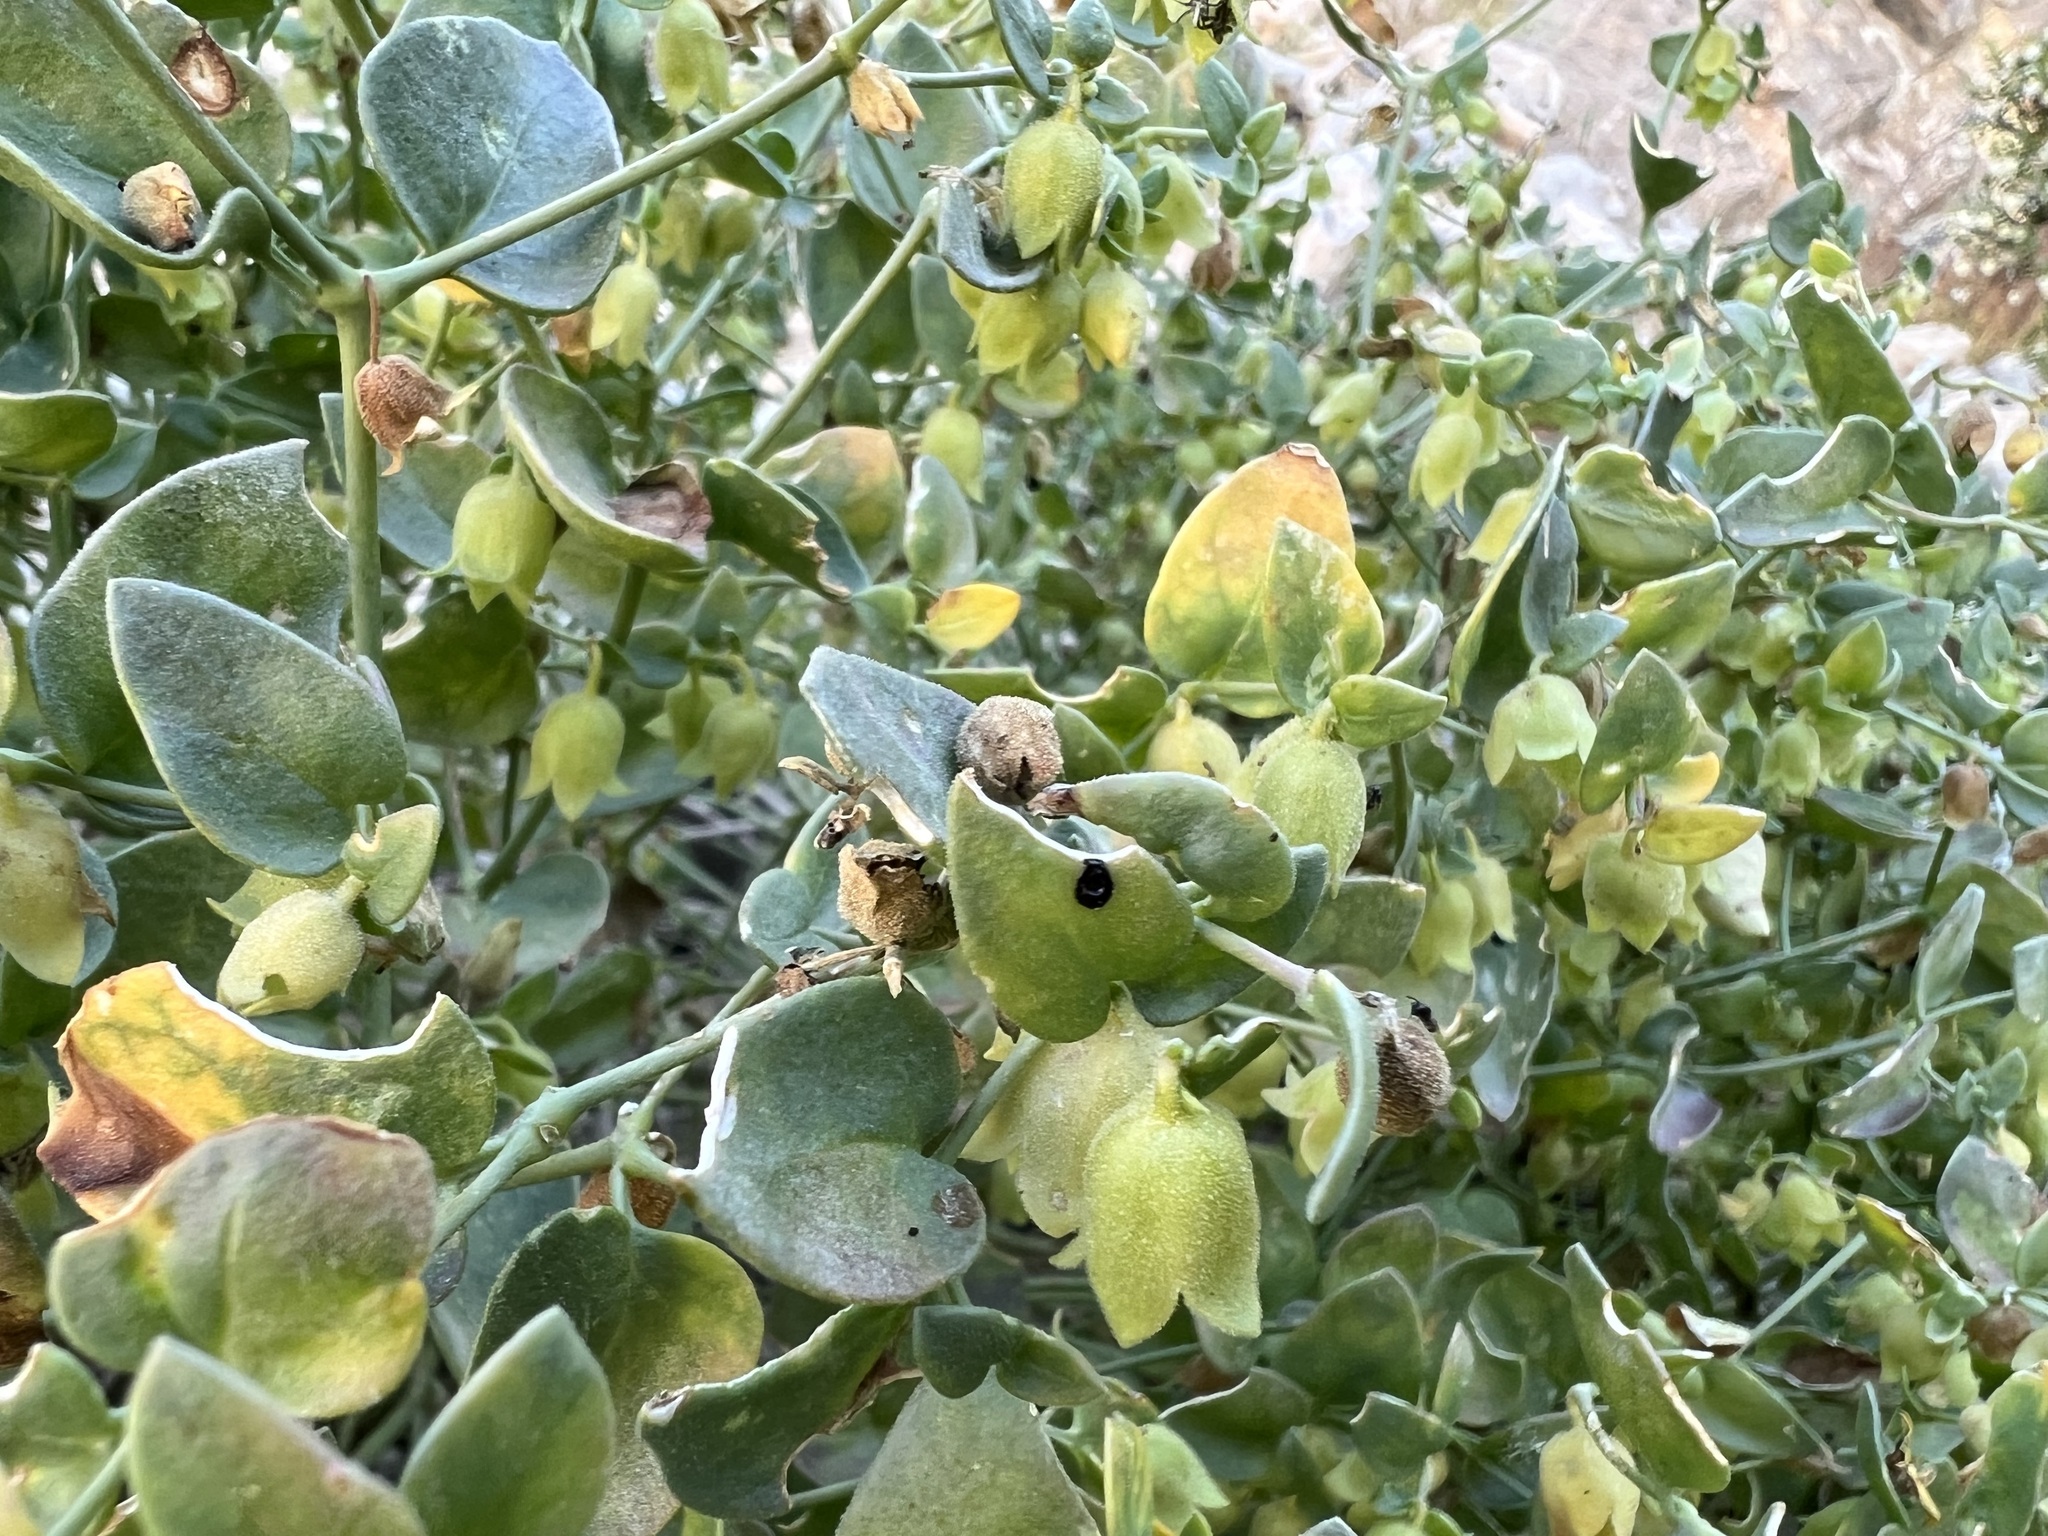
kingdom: Plantae
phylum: Tracheophyta
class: Magnoliopsida
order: Caryophyllales
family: Nyctaginaceae
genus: Mirabilis
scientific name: Mirabilis laevis
